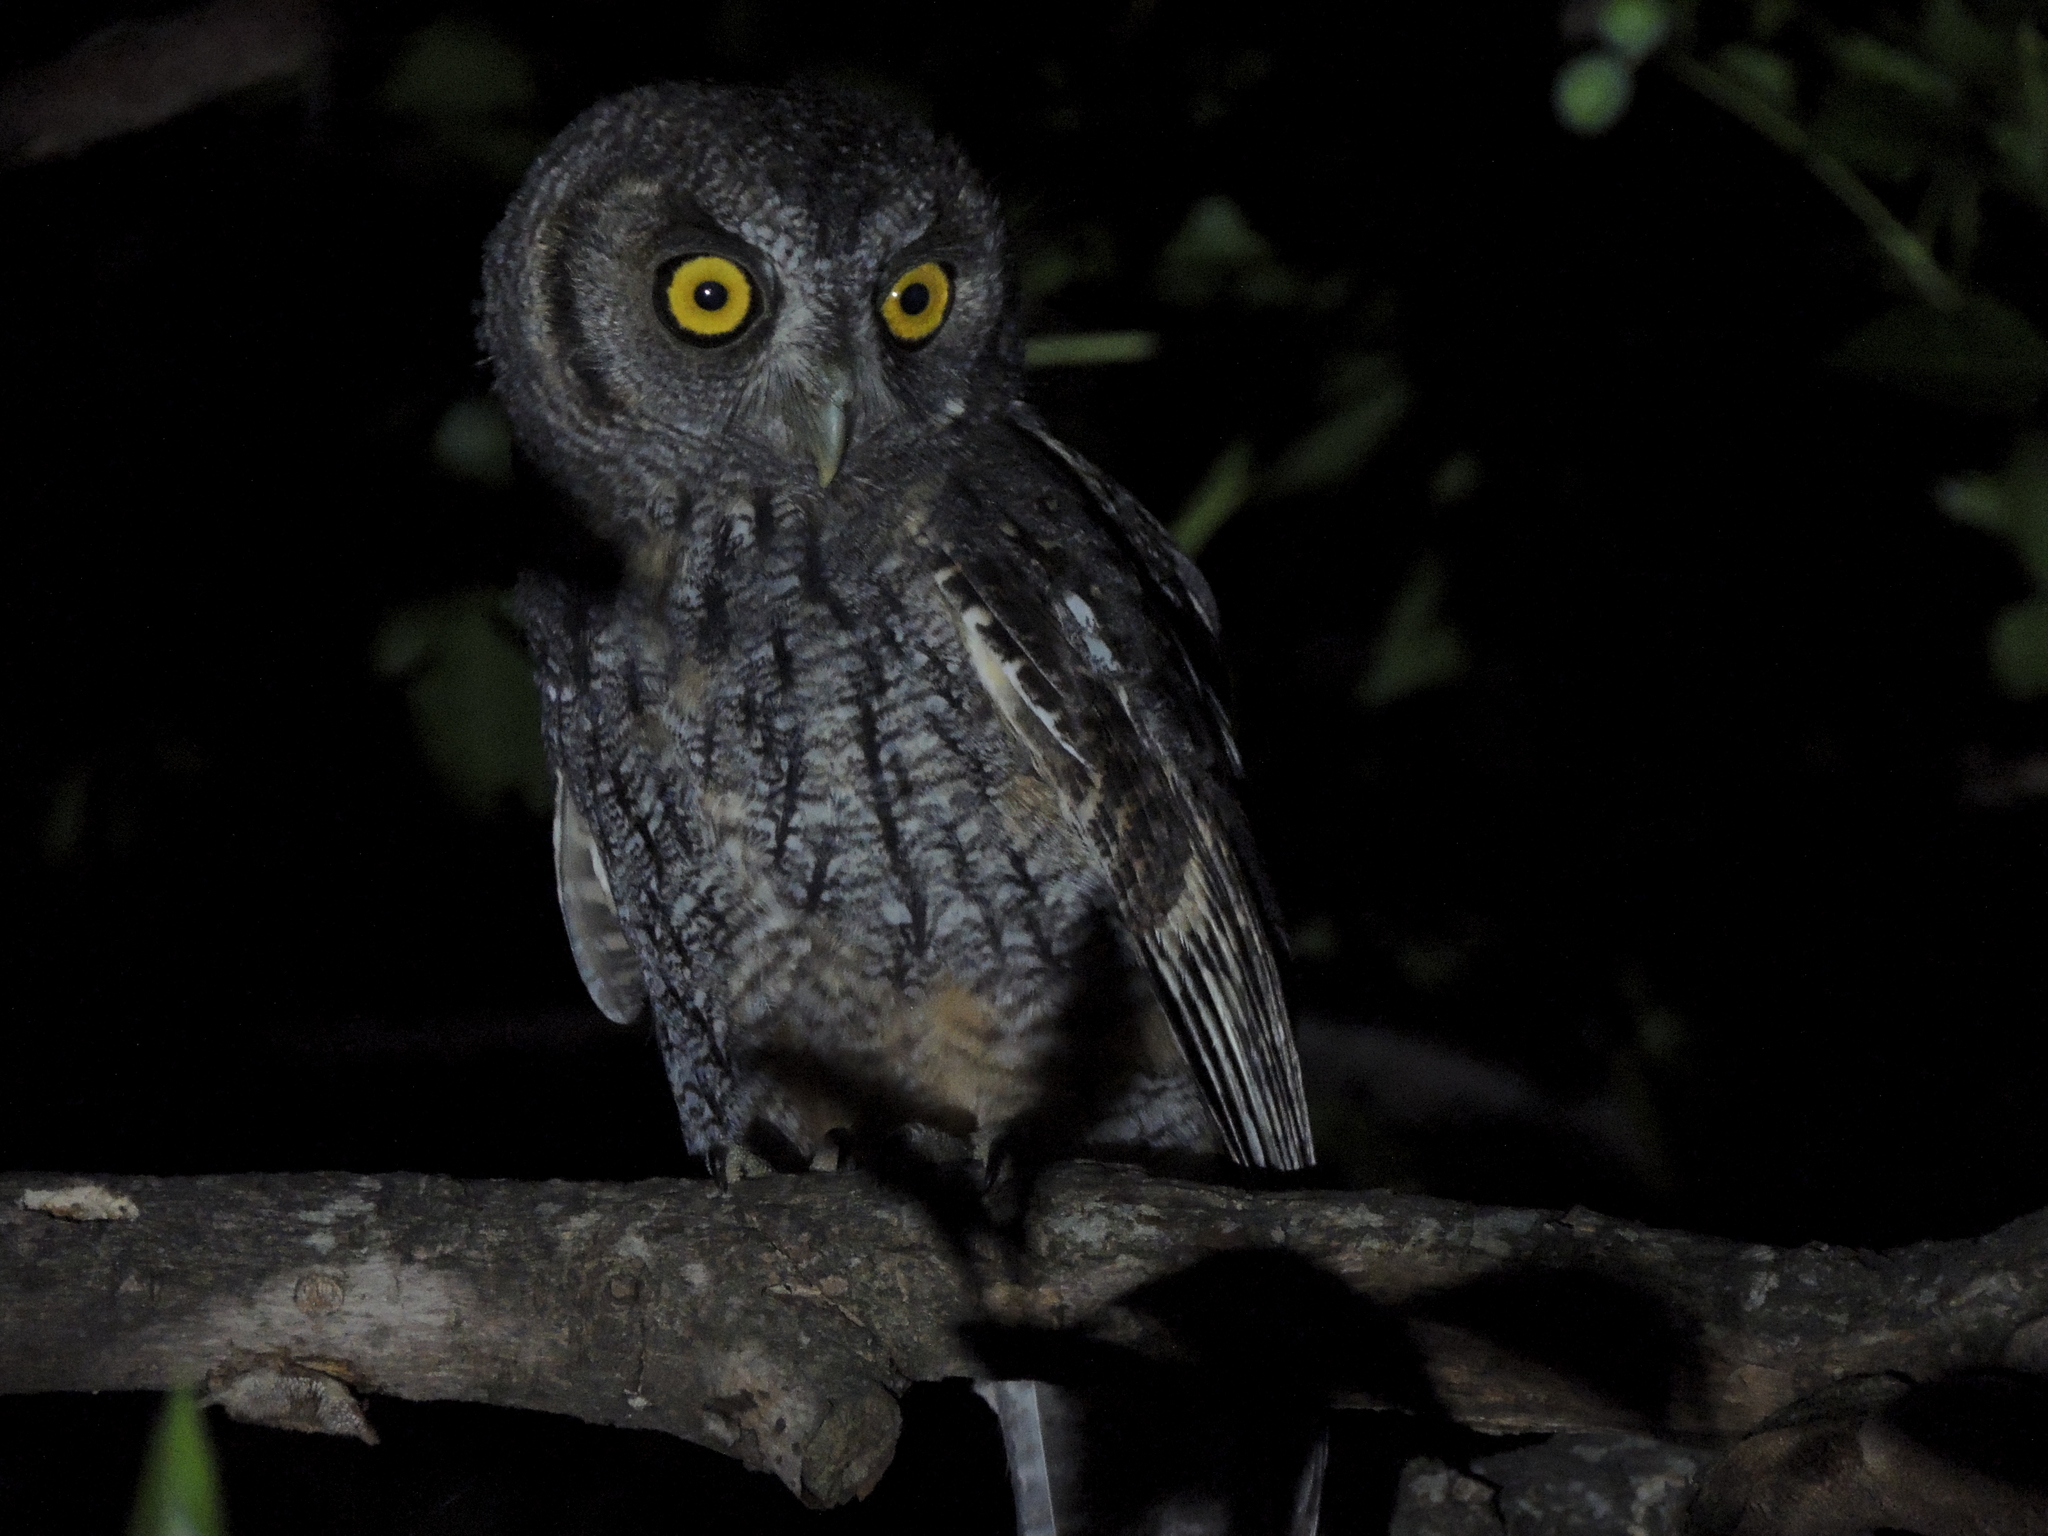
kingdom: Animalia
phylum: Chordata
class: Aves
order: Strigiformes
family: Strigidae
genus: Megascops
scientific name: Megascops choliba
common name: Tropical screech-owl
